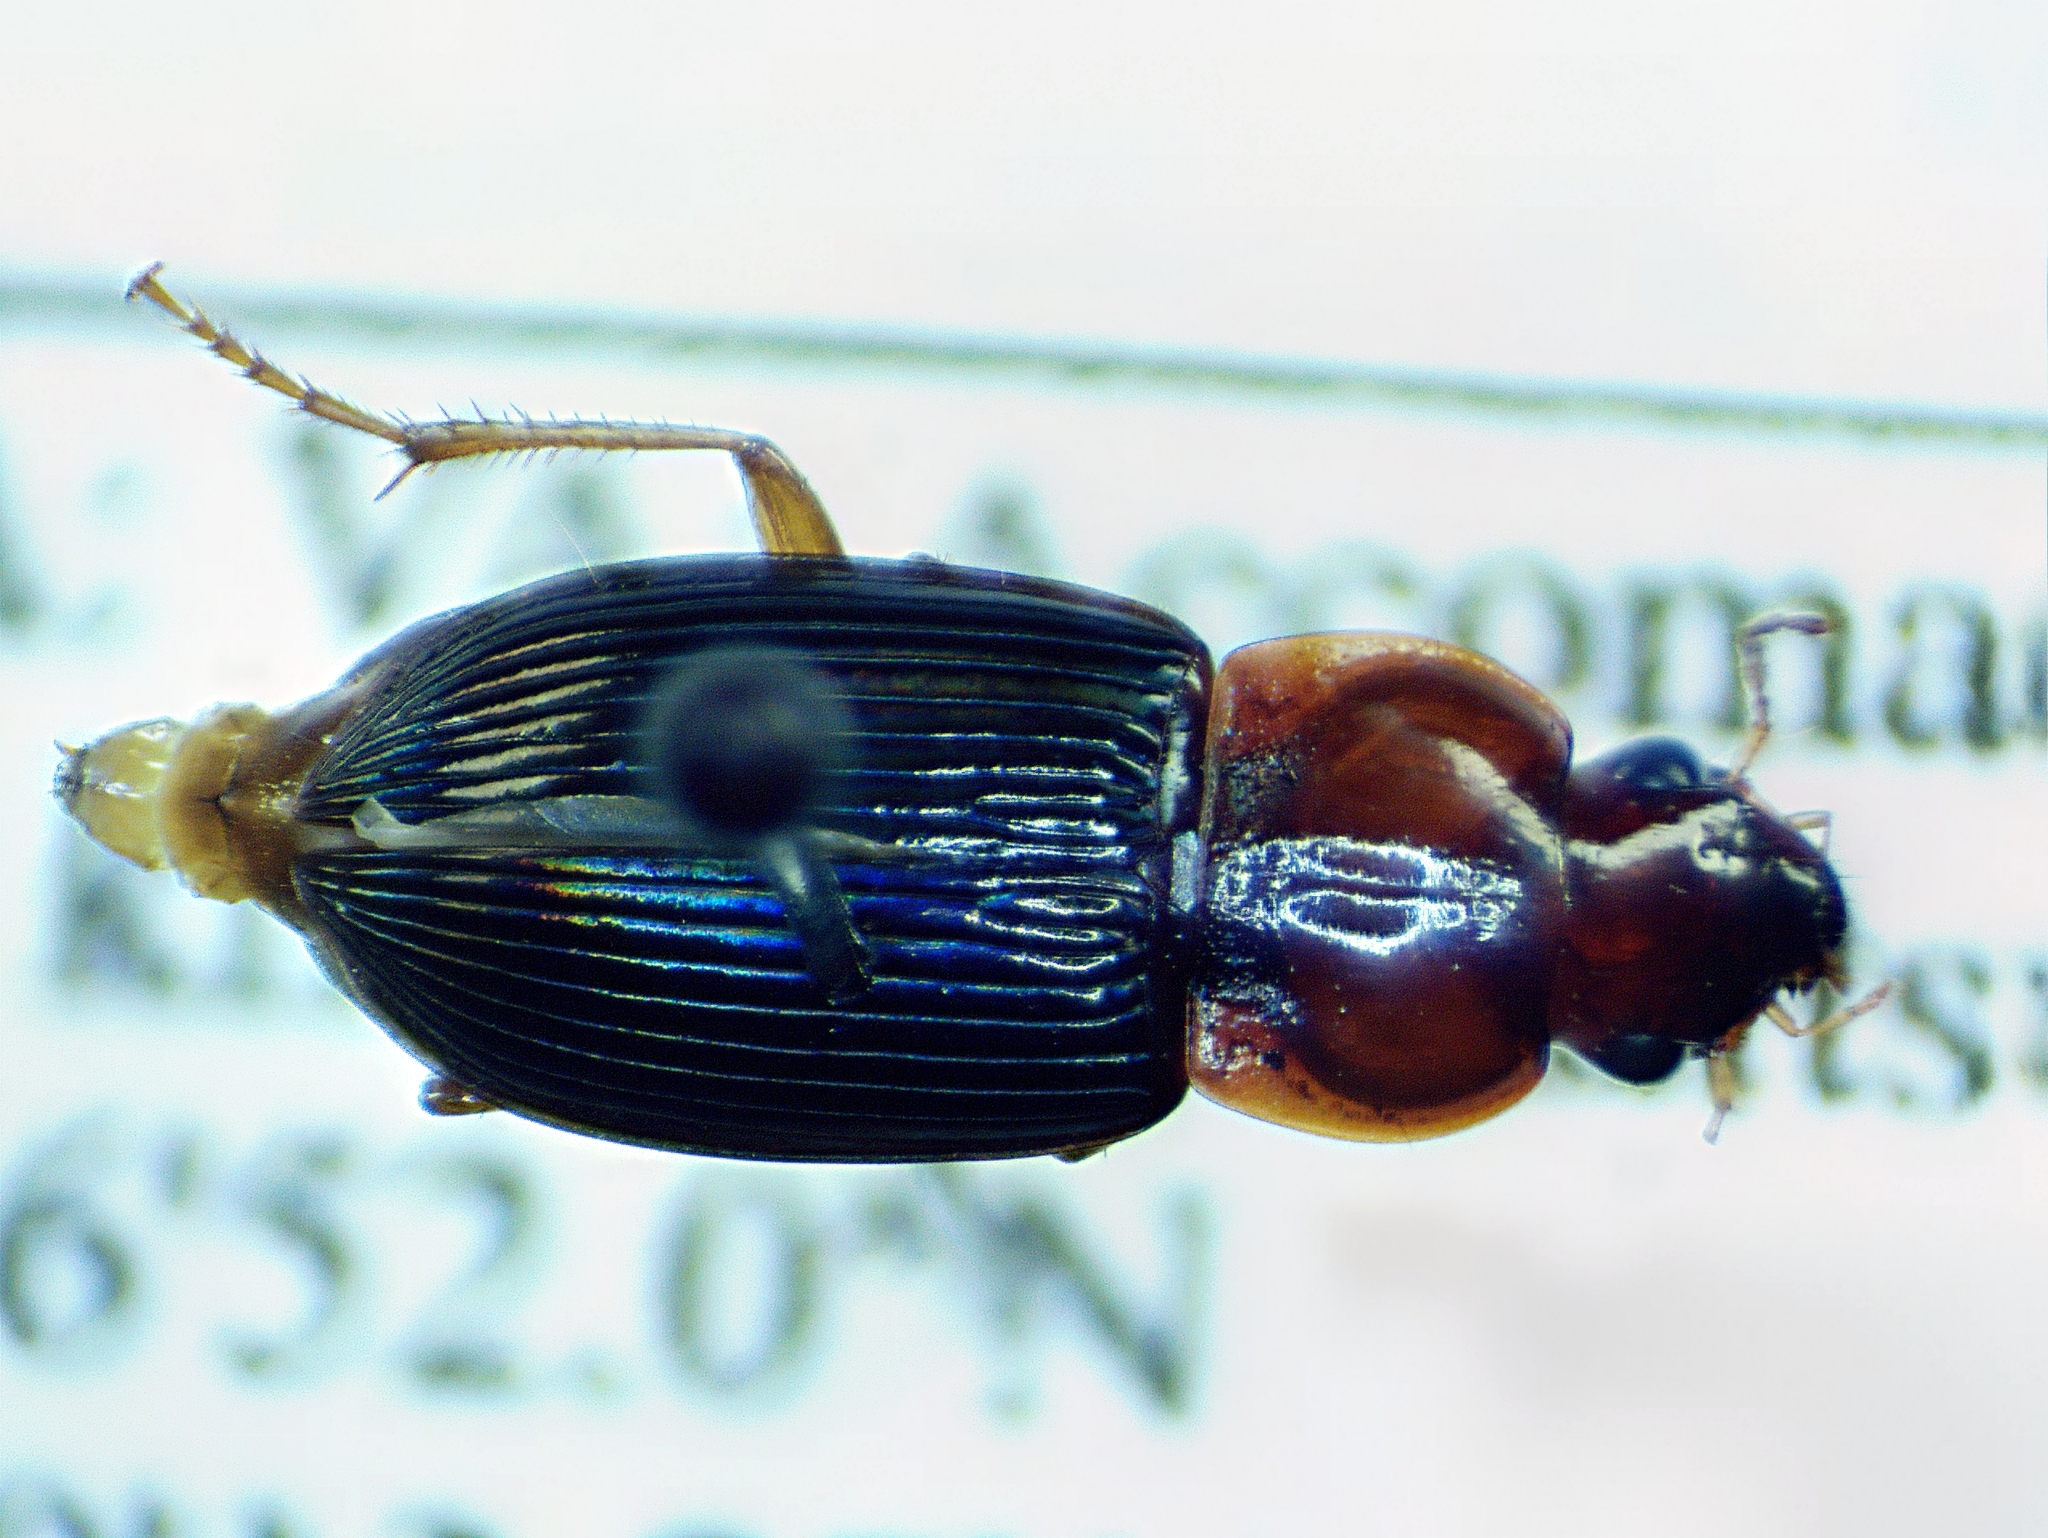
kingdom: Animalia
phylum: Arthropoda
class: Insecta
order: Coleoptera
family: Carabidae
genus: Trichotichnus
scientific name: Trichotichnus dichrous
